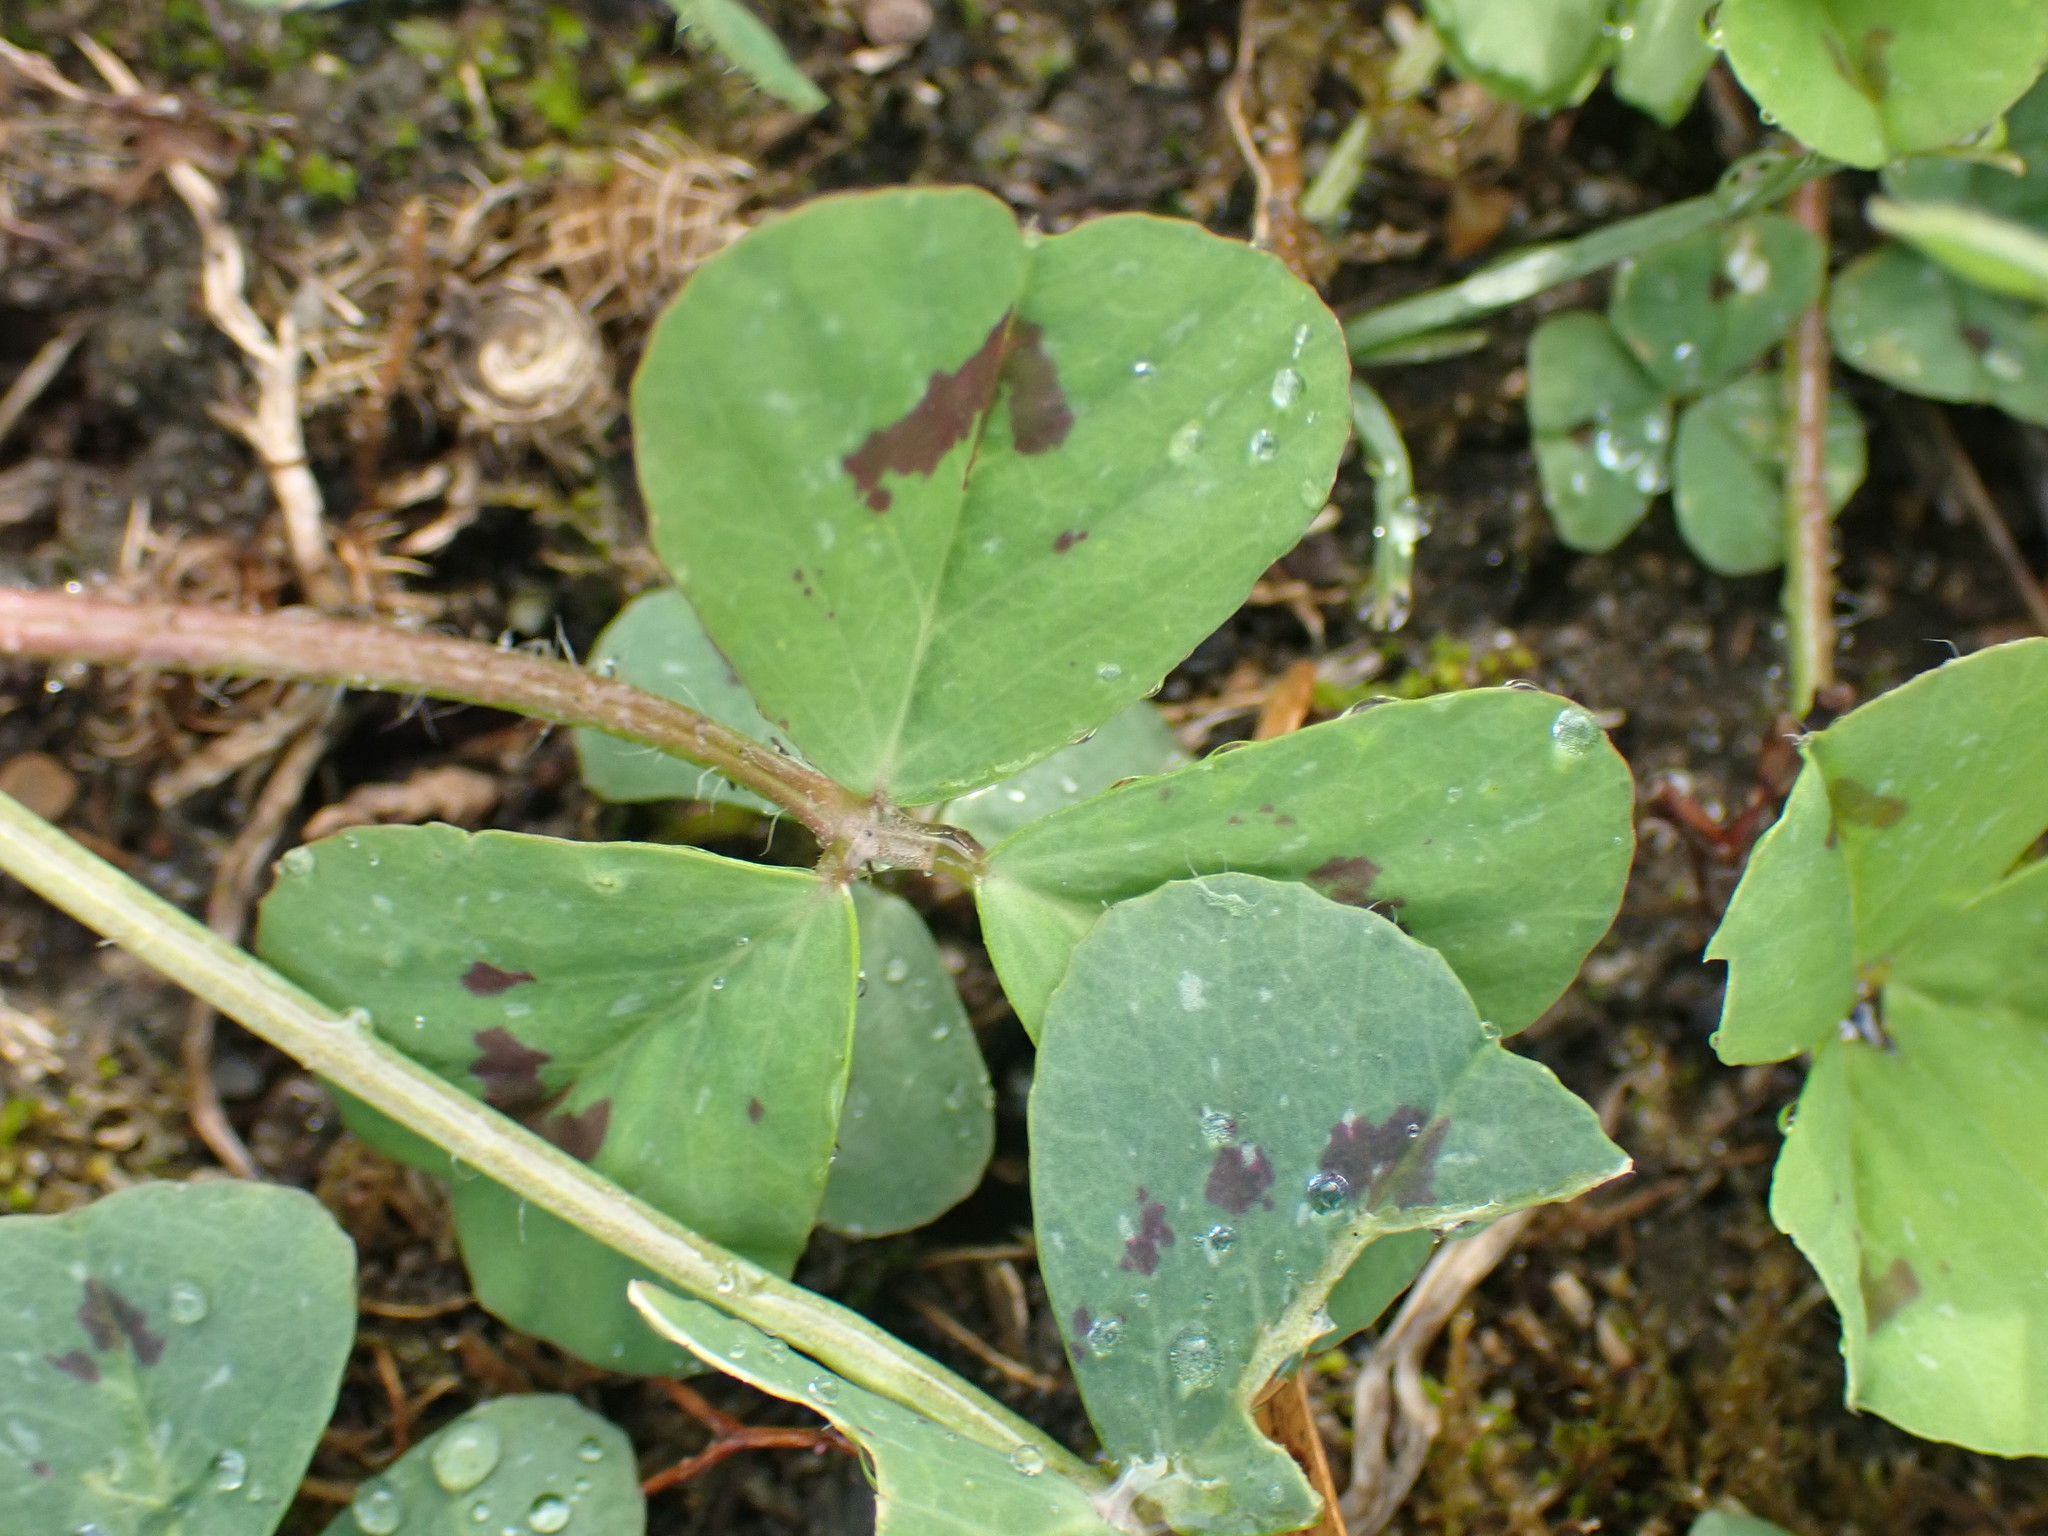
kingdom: Plantae
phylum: Tracheophyta
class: Magnoliopsida
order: Fabales
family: Fabaceae
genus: Medicago
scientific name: Medicago arabica
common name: Spotted medick
